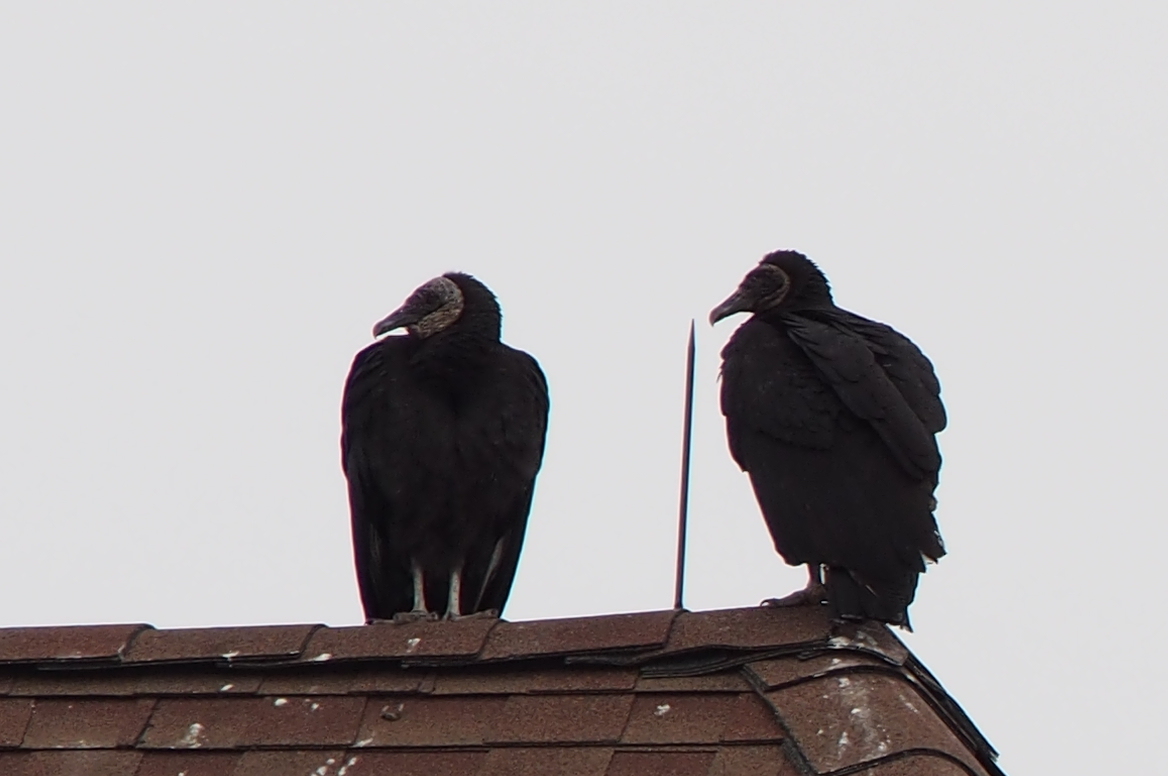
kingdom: Animalia
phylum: Chordata
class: Aves
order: Accipitriformes
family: Cathartidae
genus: Coragyps
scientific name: Coragyps atratus
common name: Black vulture
